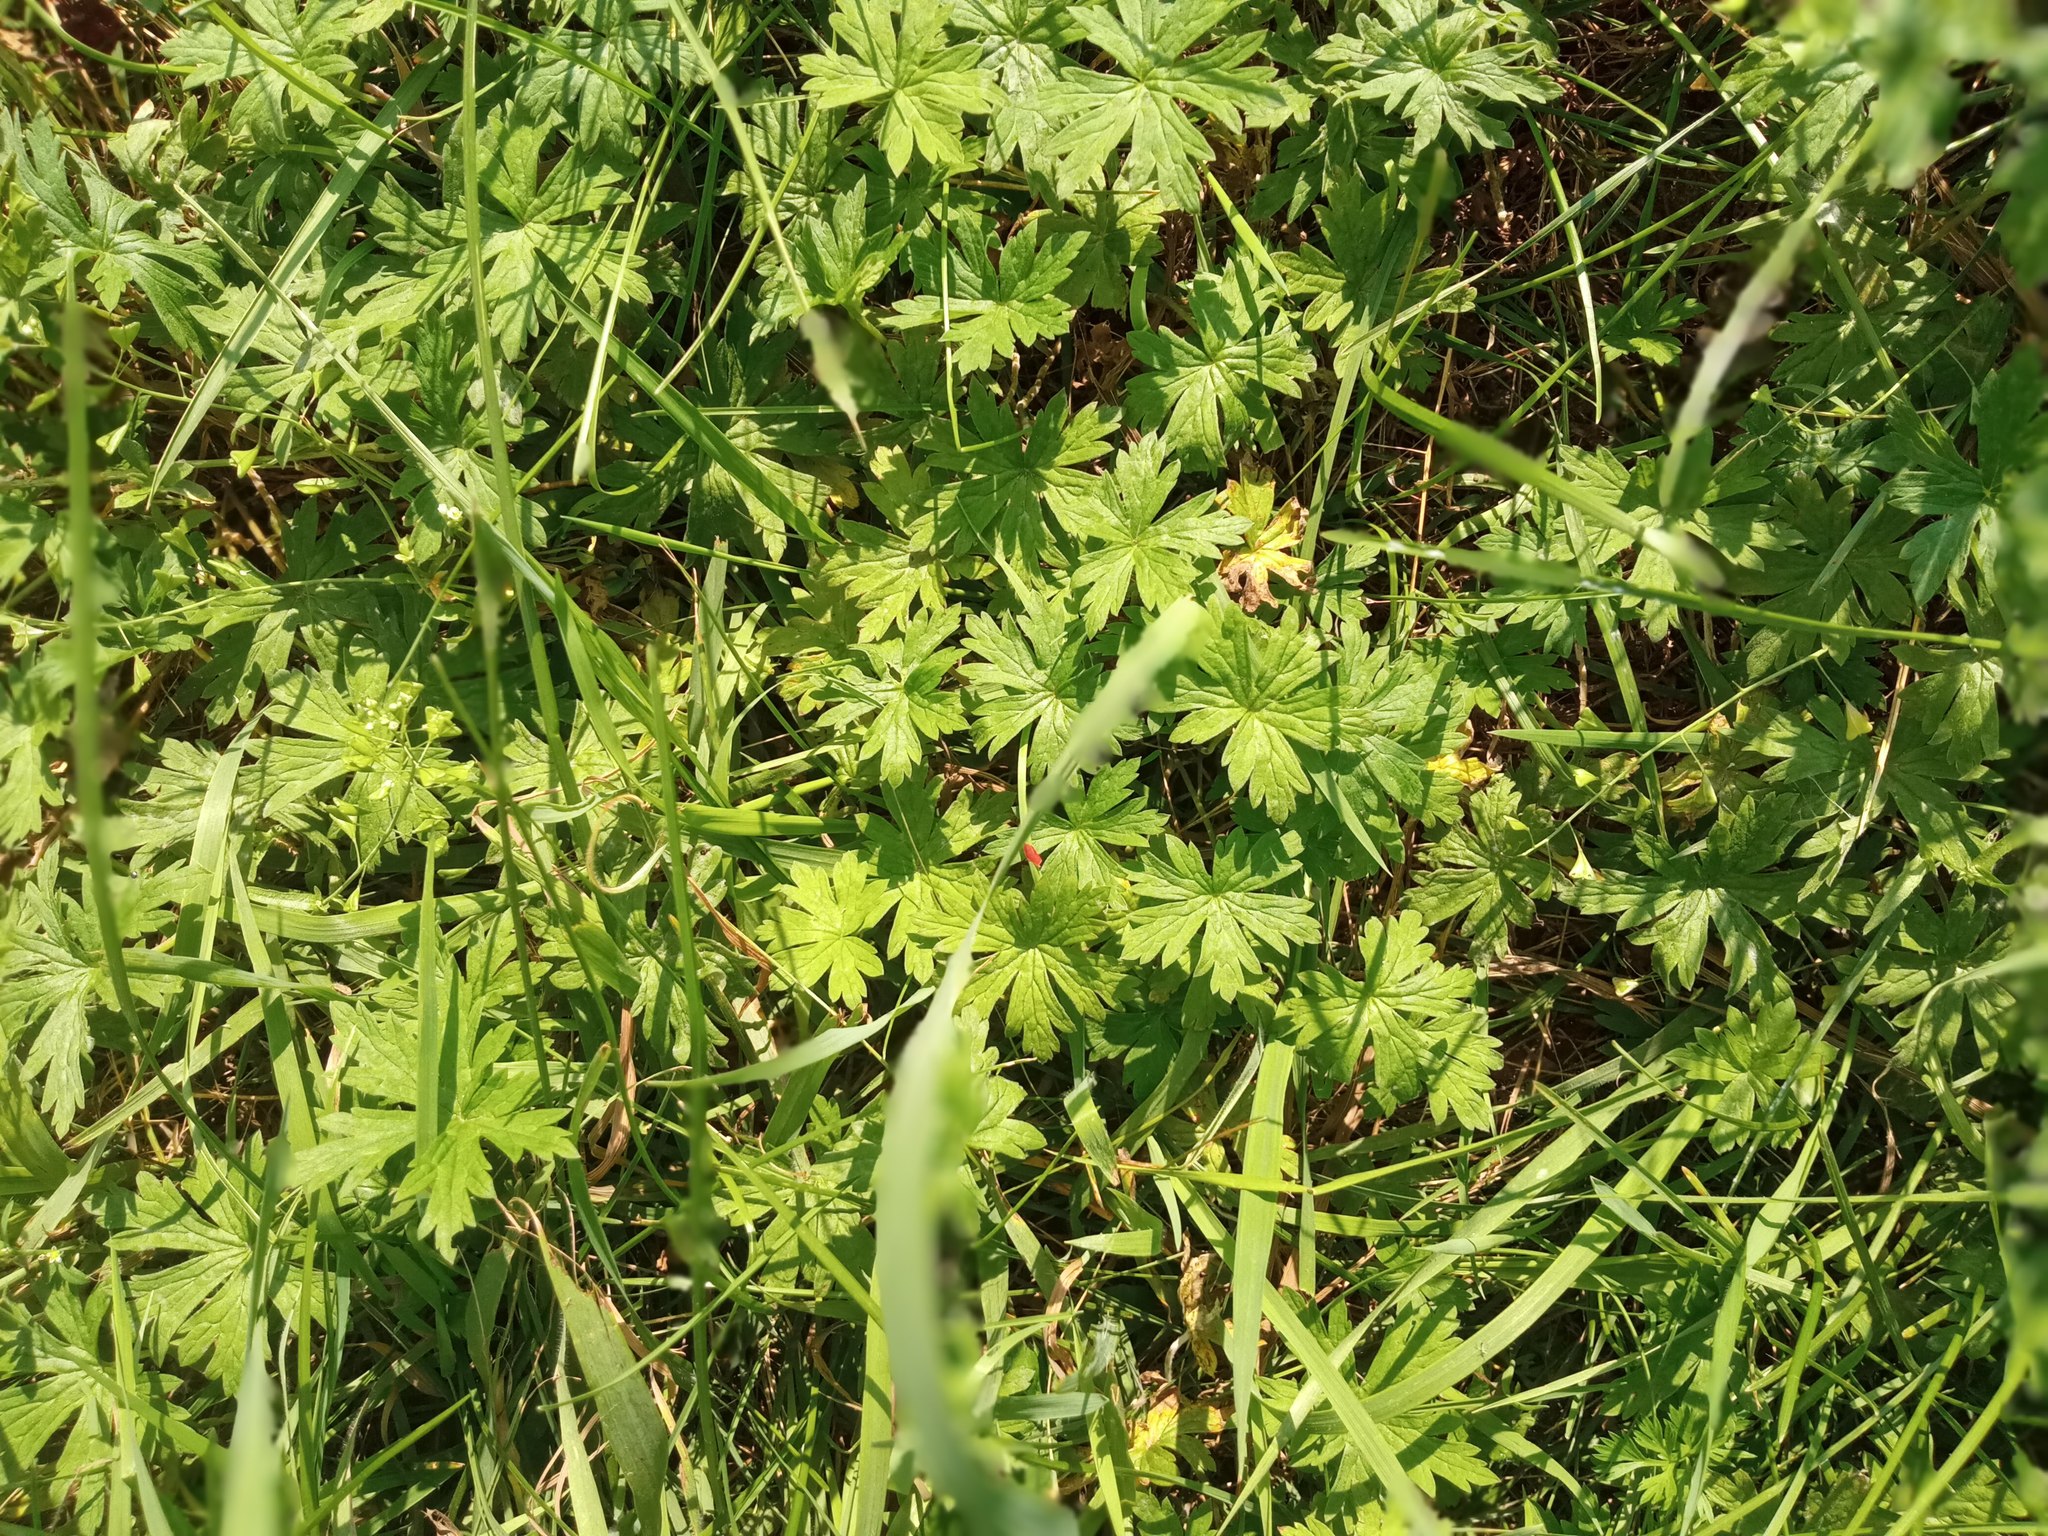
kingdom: Plantae
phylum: Tracheophyta
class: Magnoliopsida
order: Geraniales
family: Geraniaceae
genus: Geranium
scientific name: Geranium sibiricum
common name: Siberian crane's-bill
